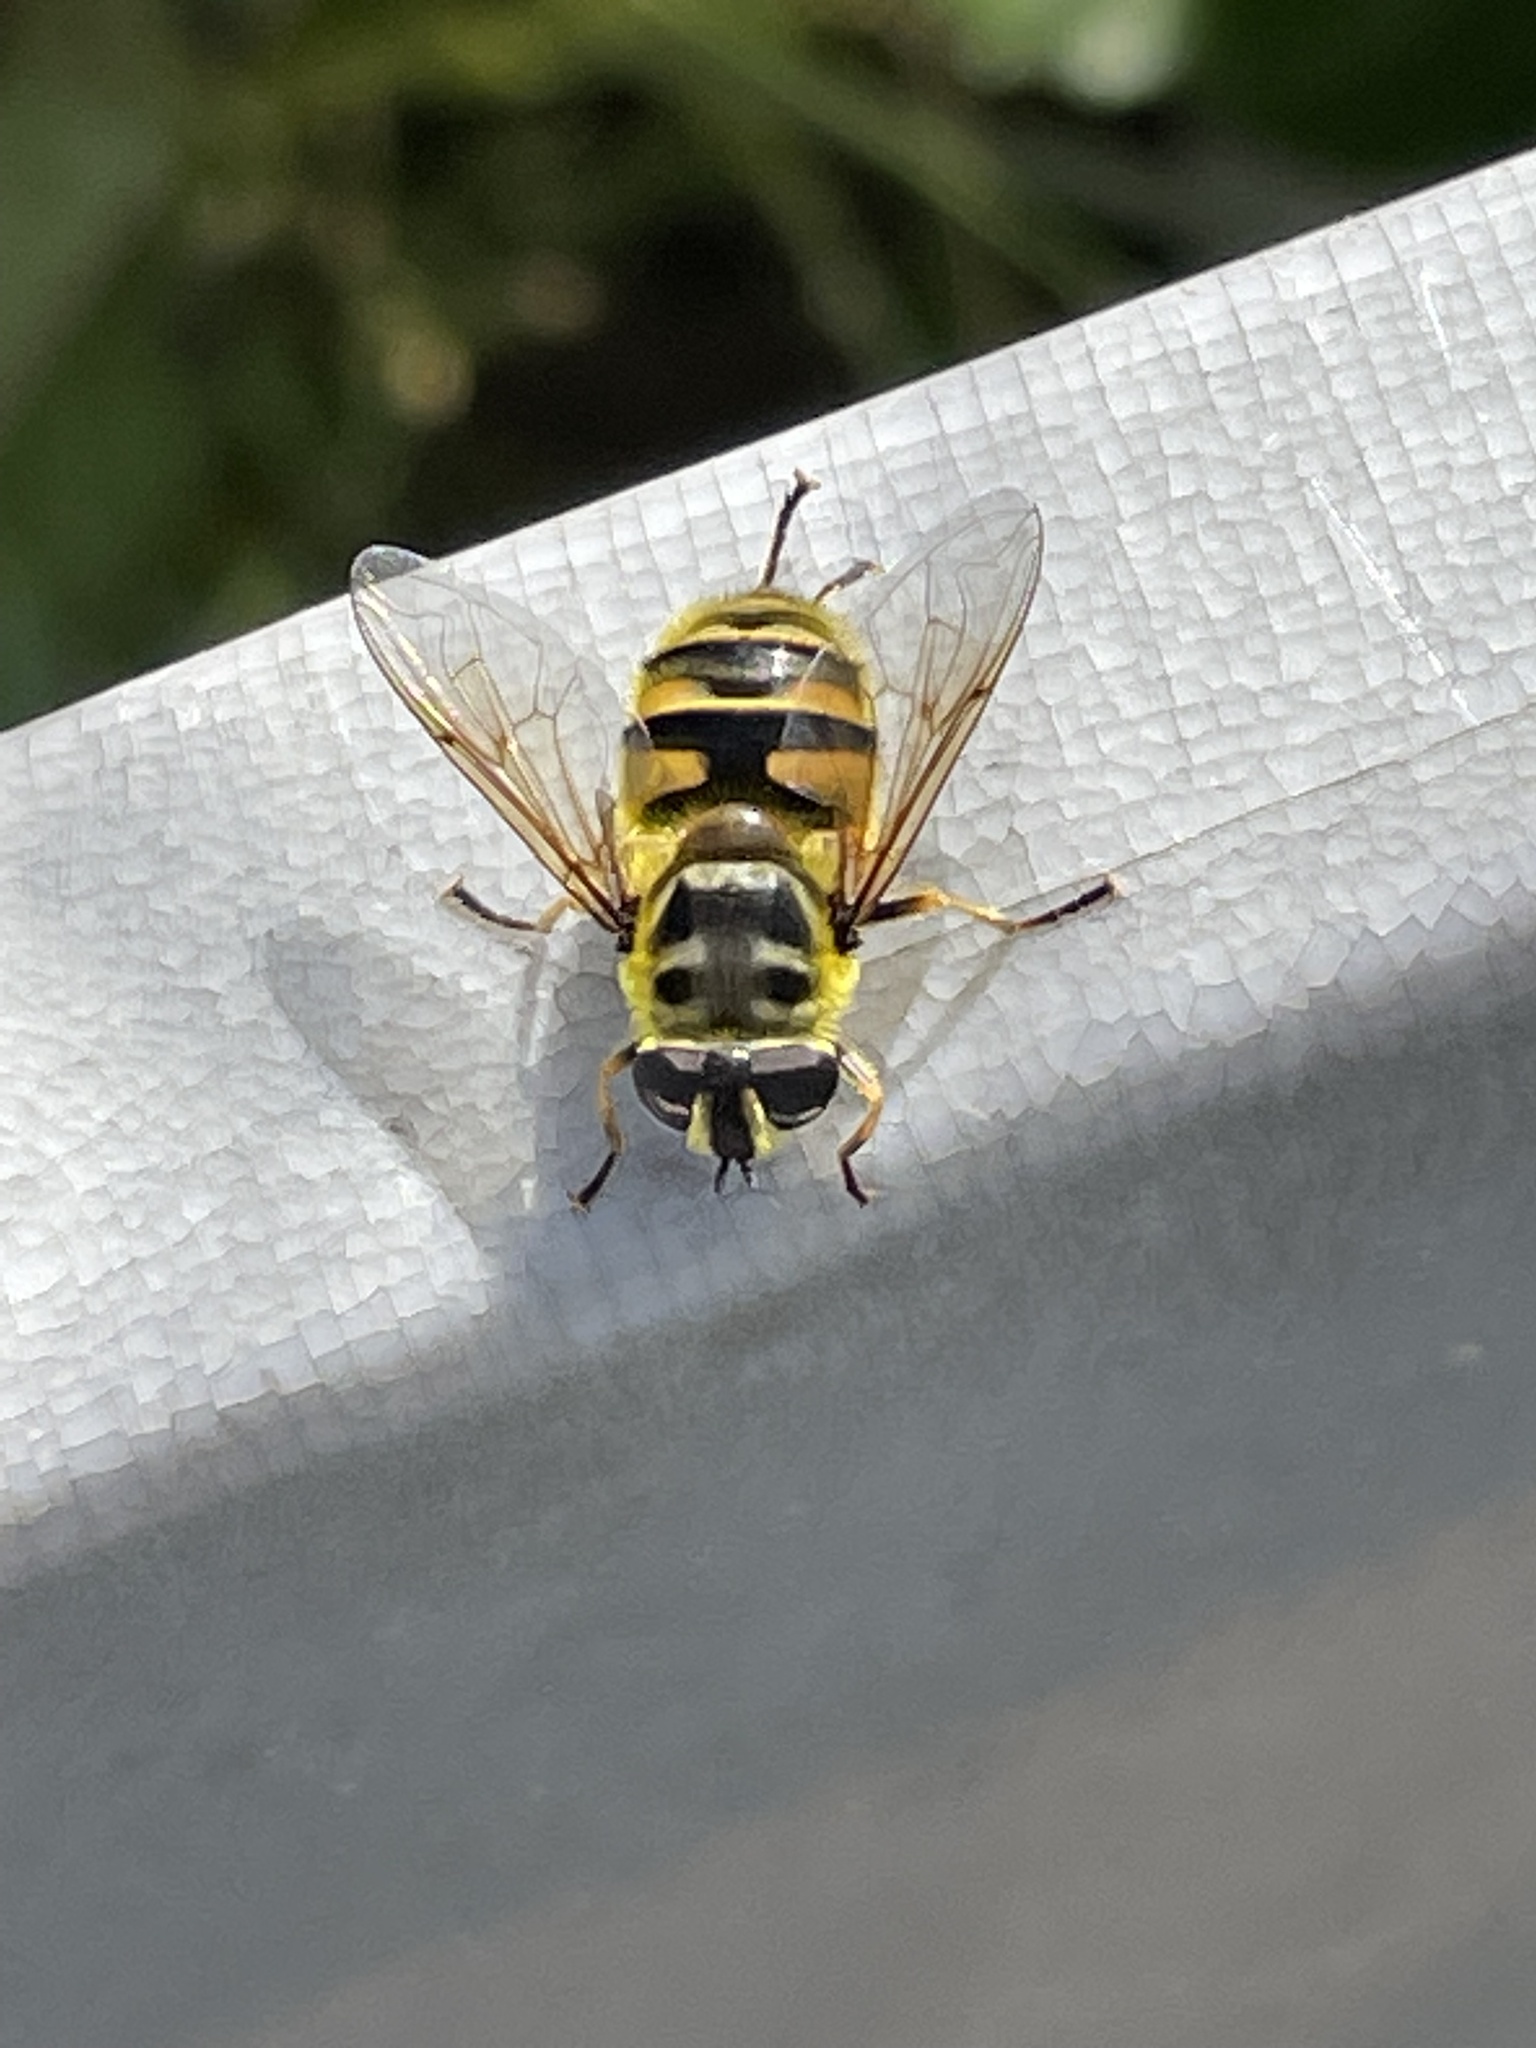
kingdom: Animalia
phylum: Arthropoda
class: Insecta
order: Diptera
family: Syrphidae
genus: Myathropa
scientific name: Myathropa florea
